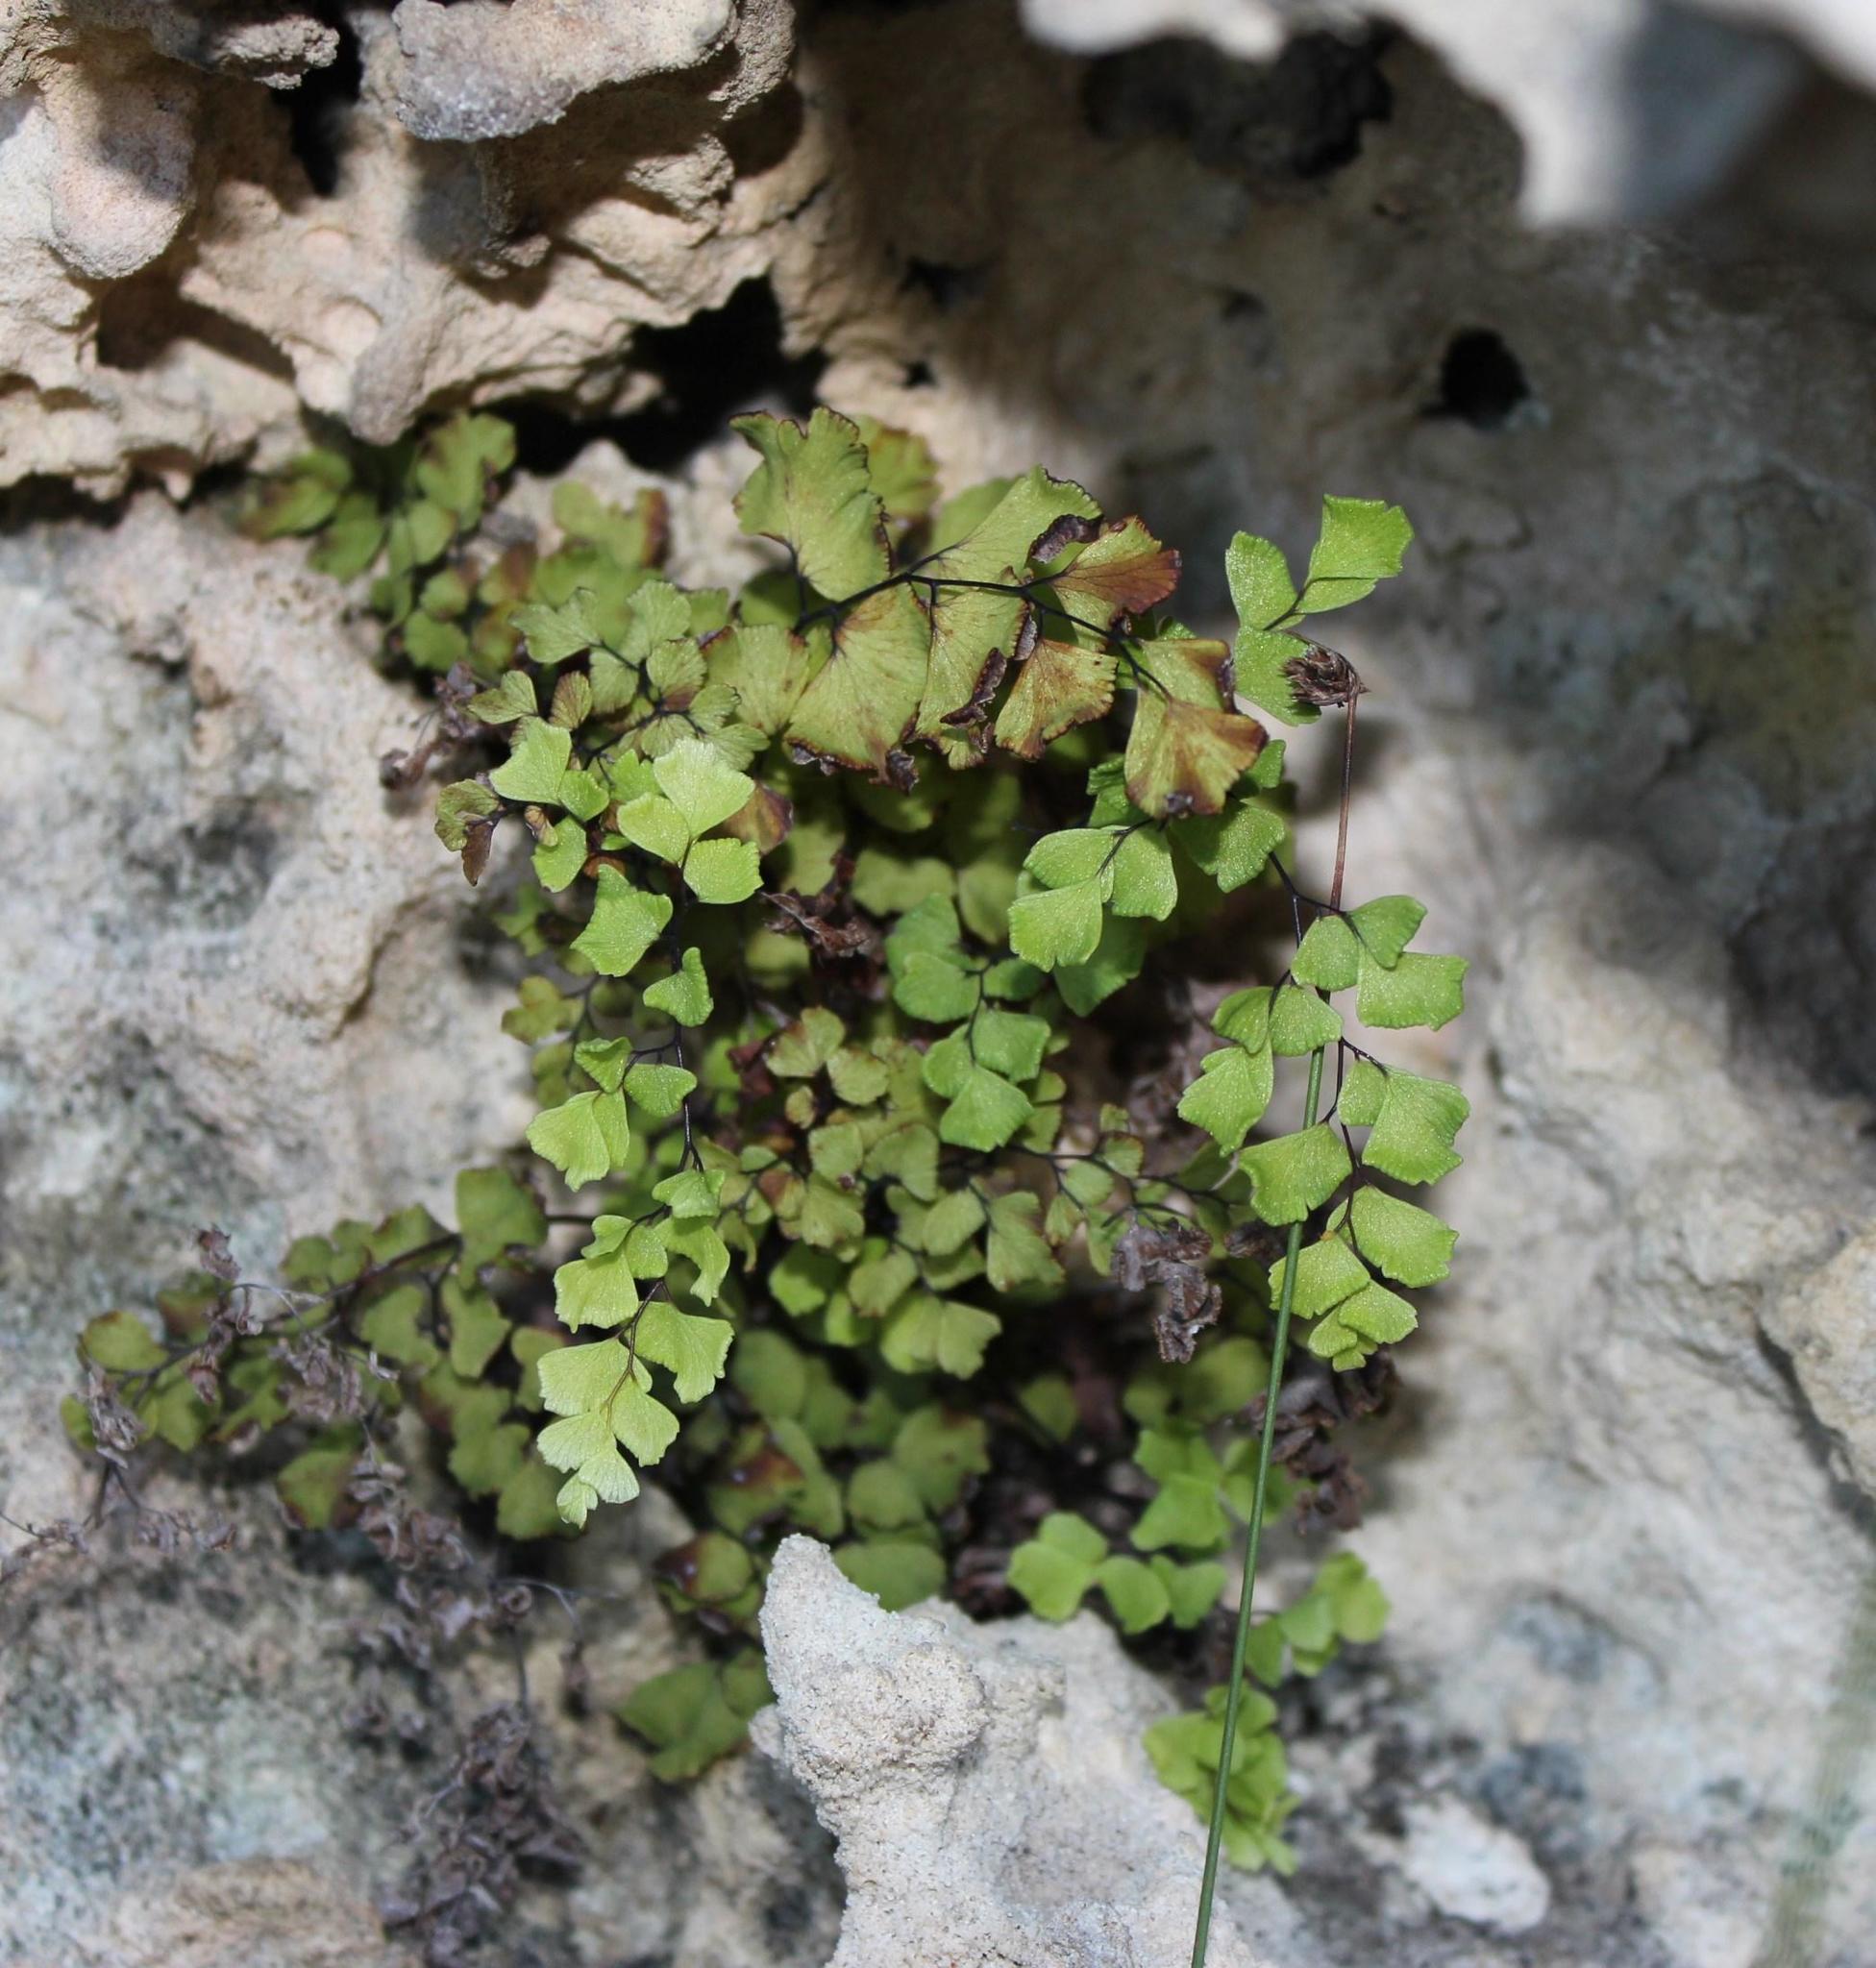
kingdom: Plantae
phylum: Tracheophyta
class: Polypodiopsida
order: Polypodiales
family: Pteridaceae
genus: Adiantum
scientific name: Adiantum capillus-veneris
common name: Maidenhair fern
